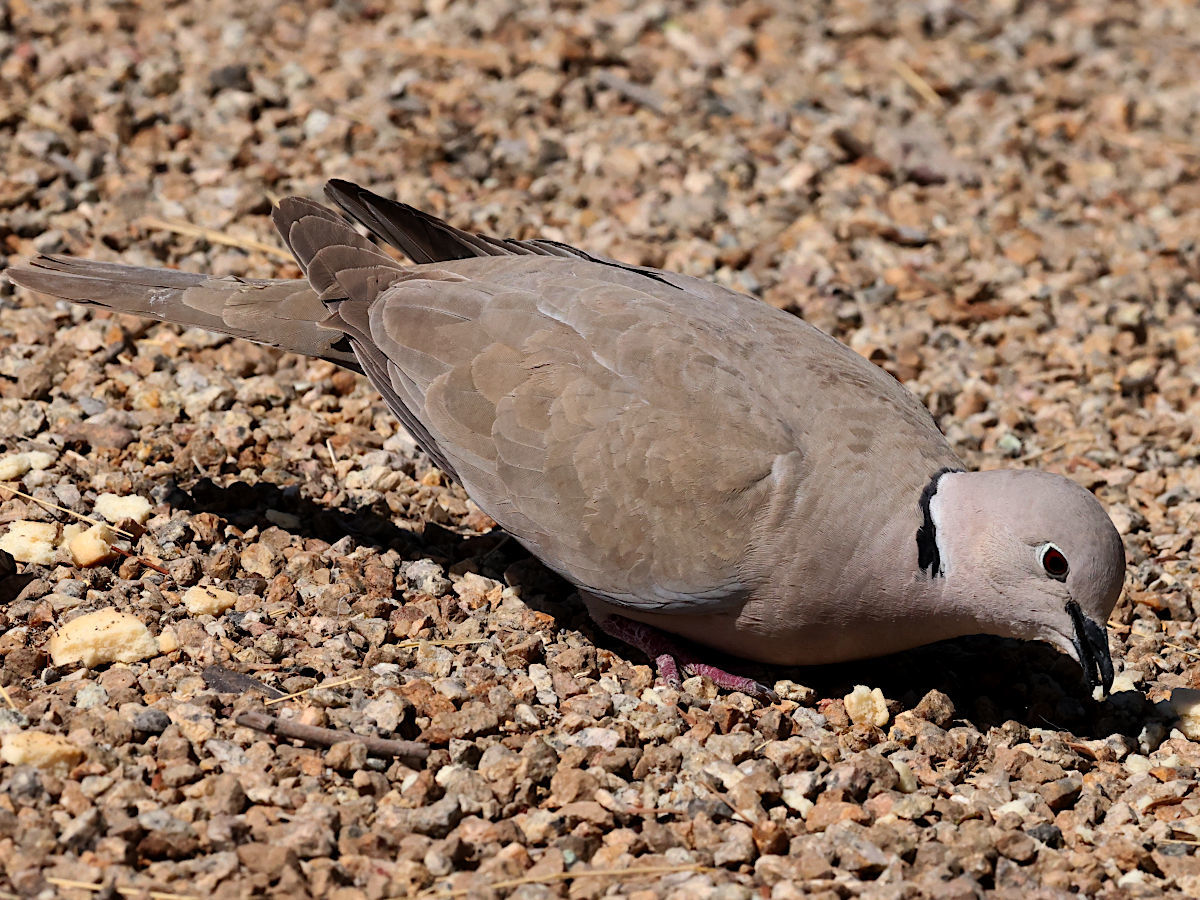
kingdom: Animalia
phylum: Chordata
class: Aves
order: Columbiformes
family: Columbidae
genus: Streptopelia
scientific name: Streptopelia decaocto
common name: Eurasian collared dove
